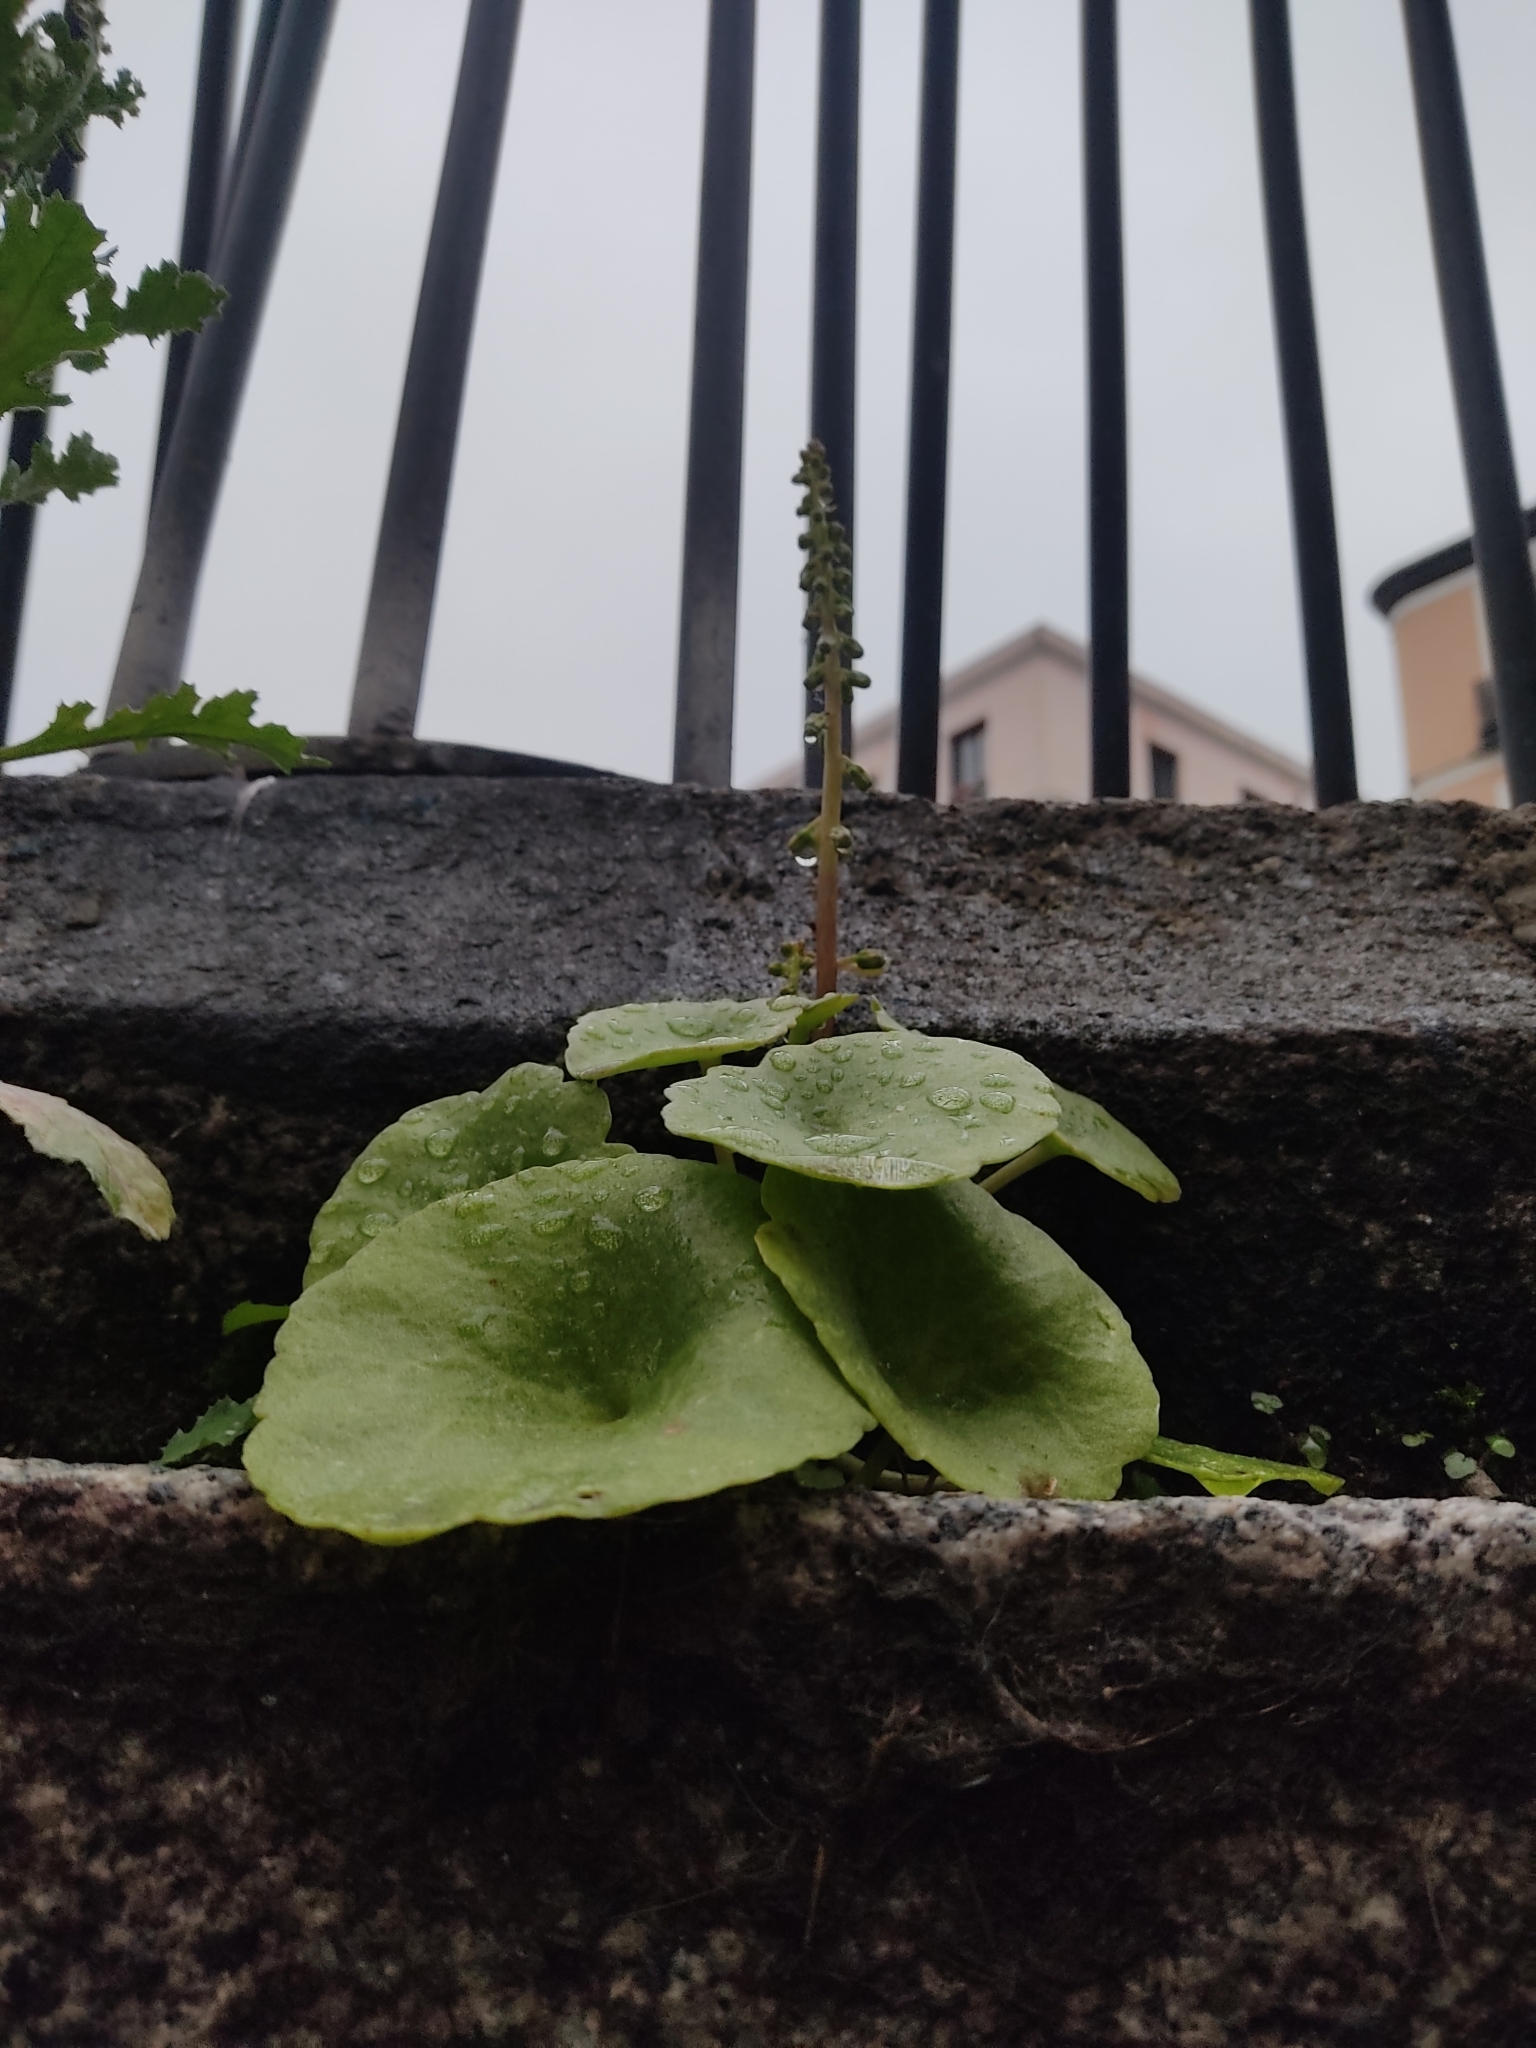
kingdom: Plantae
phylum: Tracheophyta
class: Magnoliopsida
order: Saxifragales
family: Crassulaceae
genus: Umbilicus
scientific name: Umbilicus rupestris
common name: Navelwort
